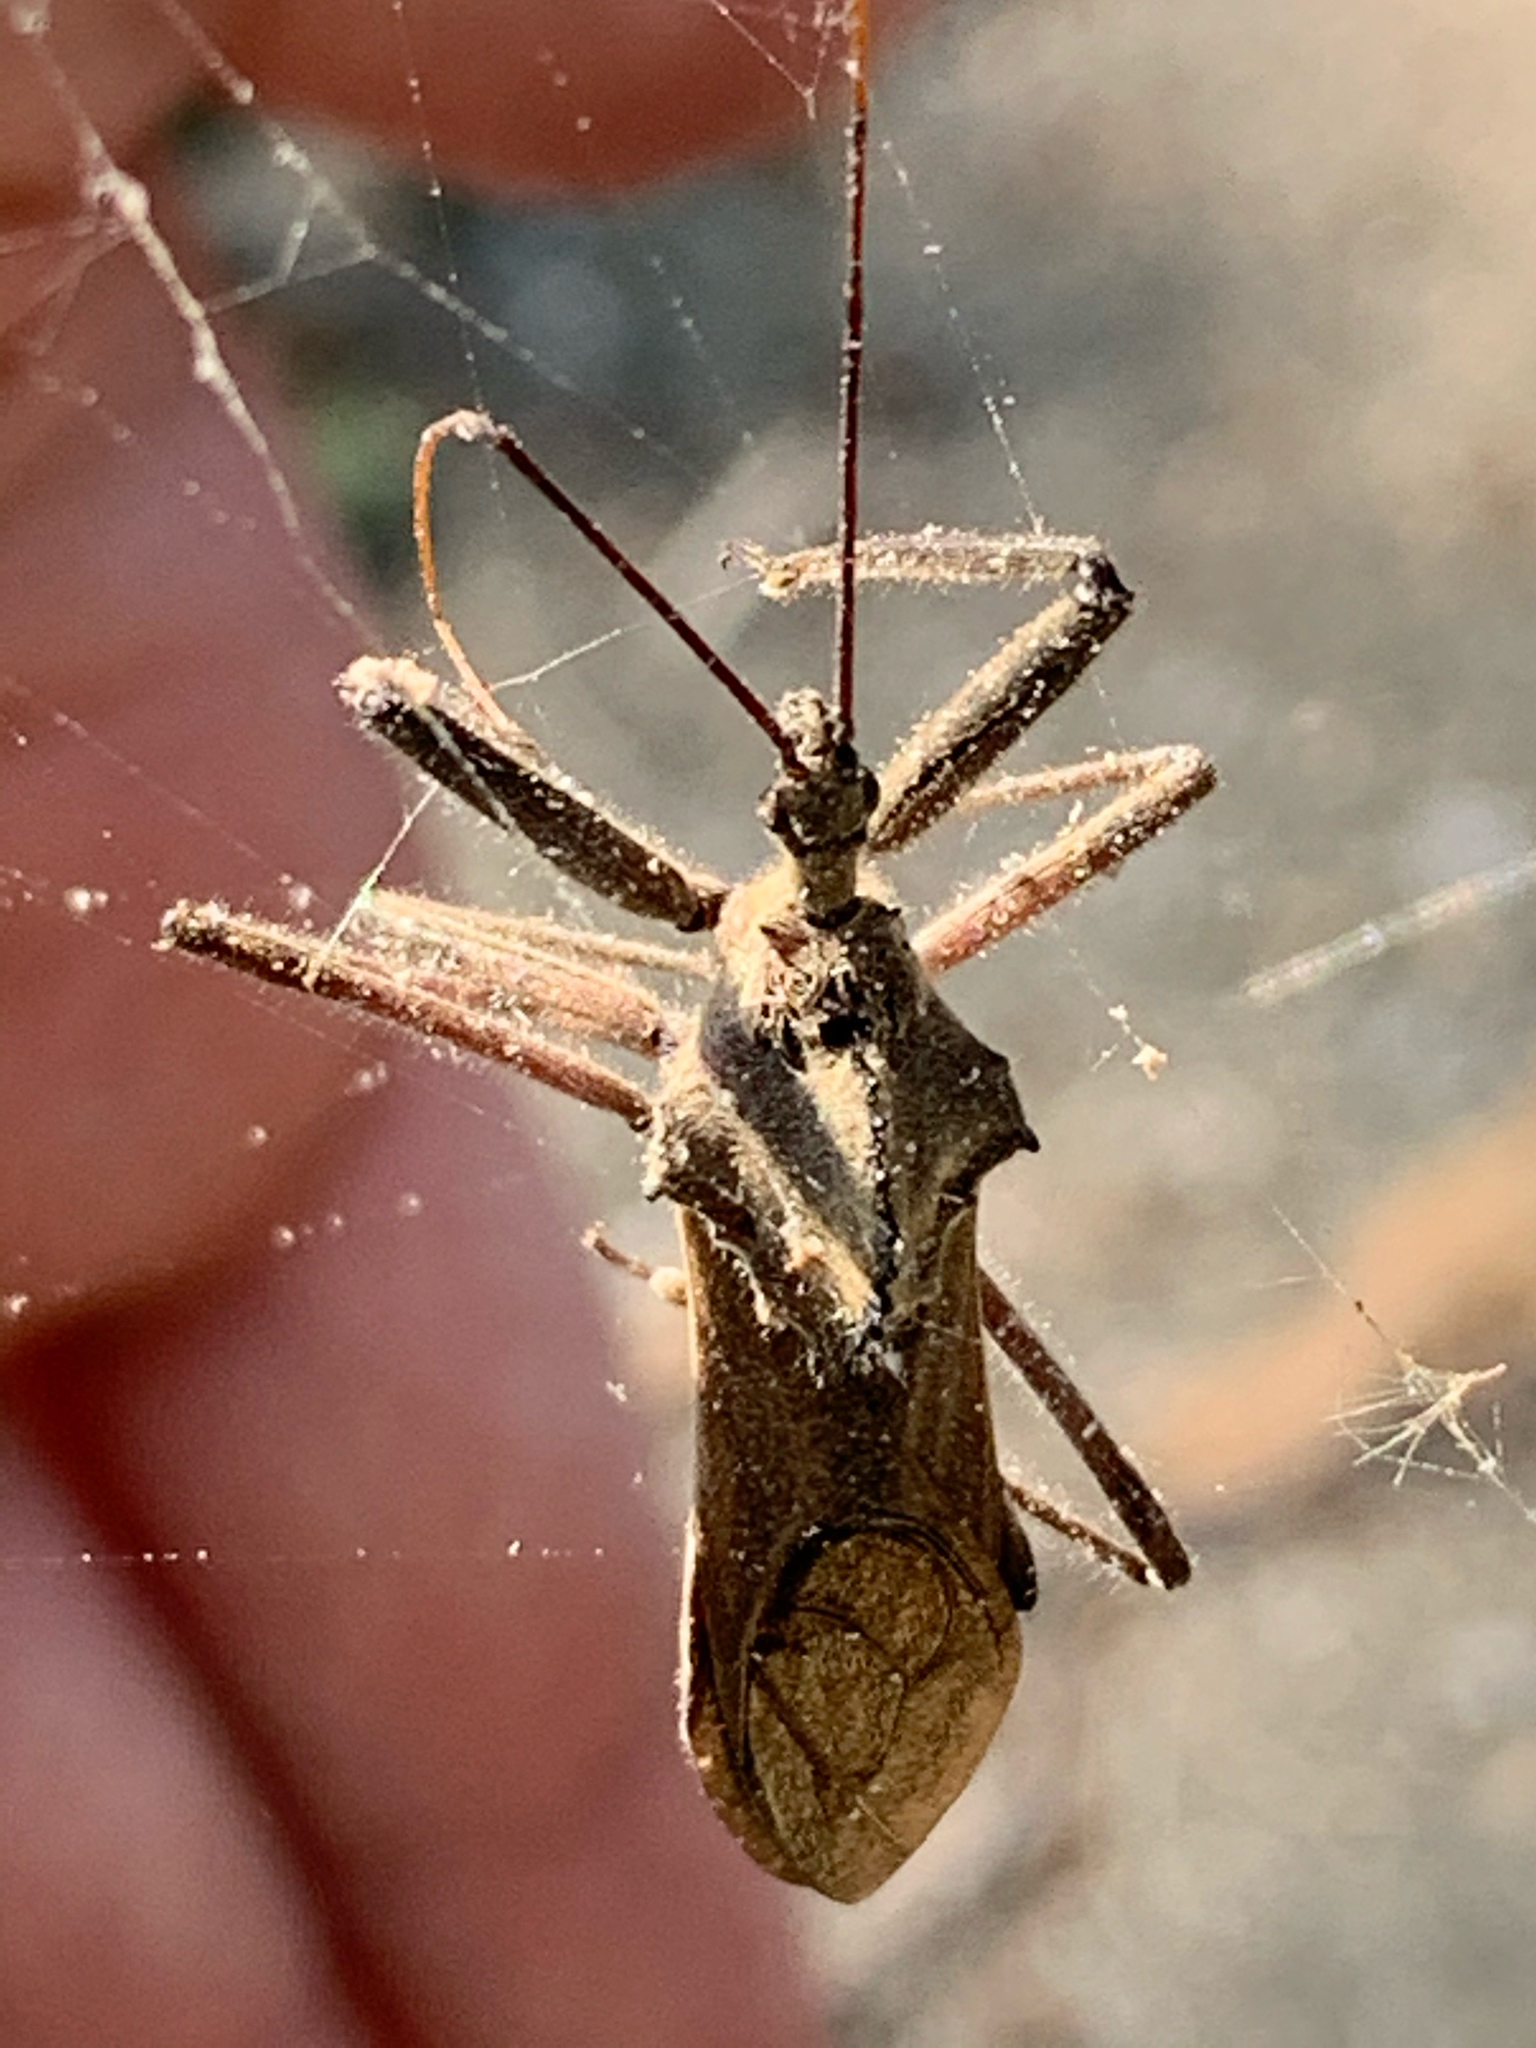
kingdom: Animalia
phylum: Arthropoda
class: Insecta
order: Hemiptera
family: Reduviidae
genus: Arilus
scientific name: Arilus cristatus
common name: North american wheel bug
